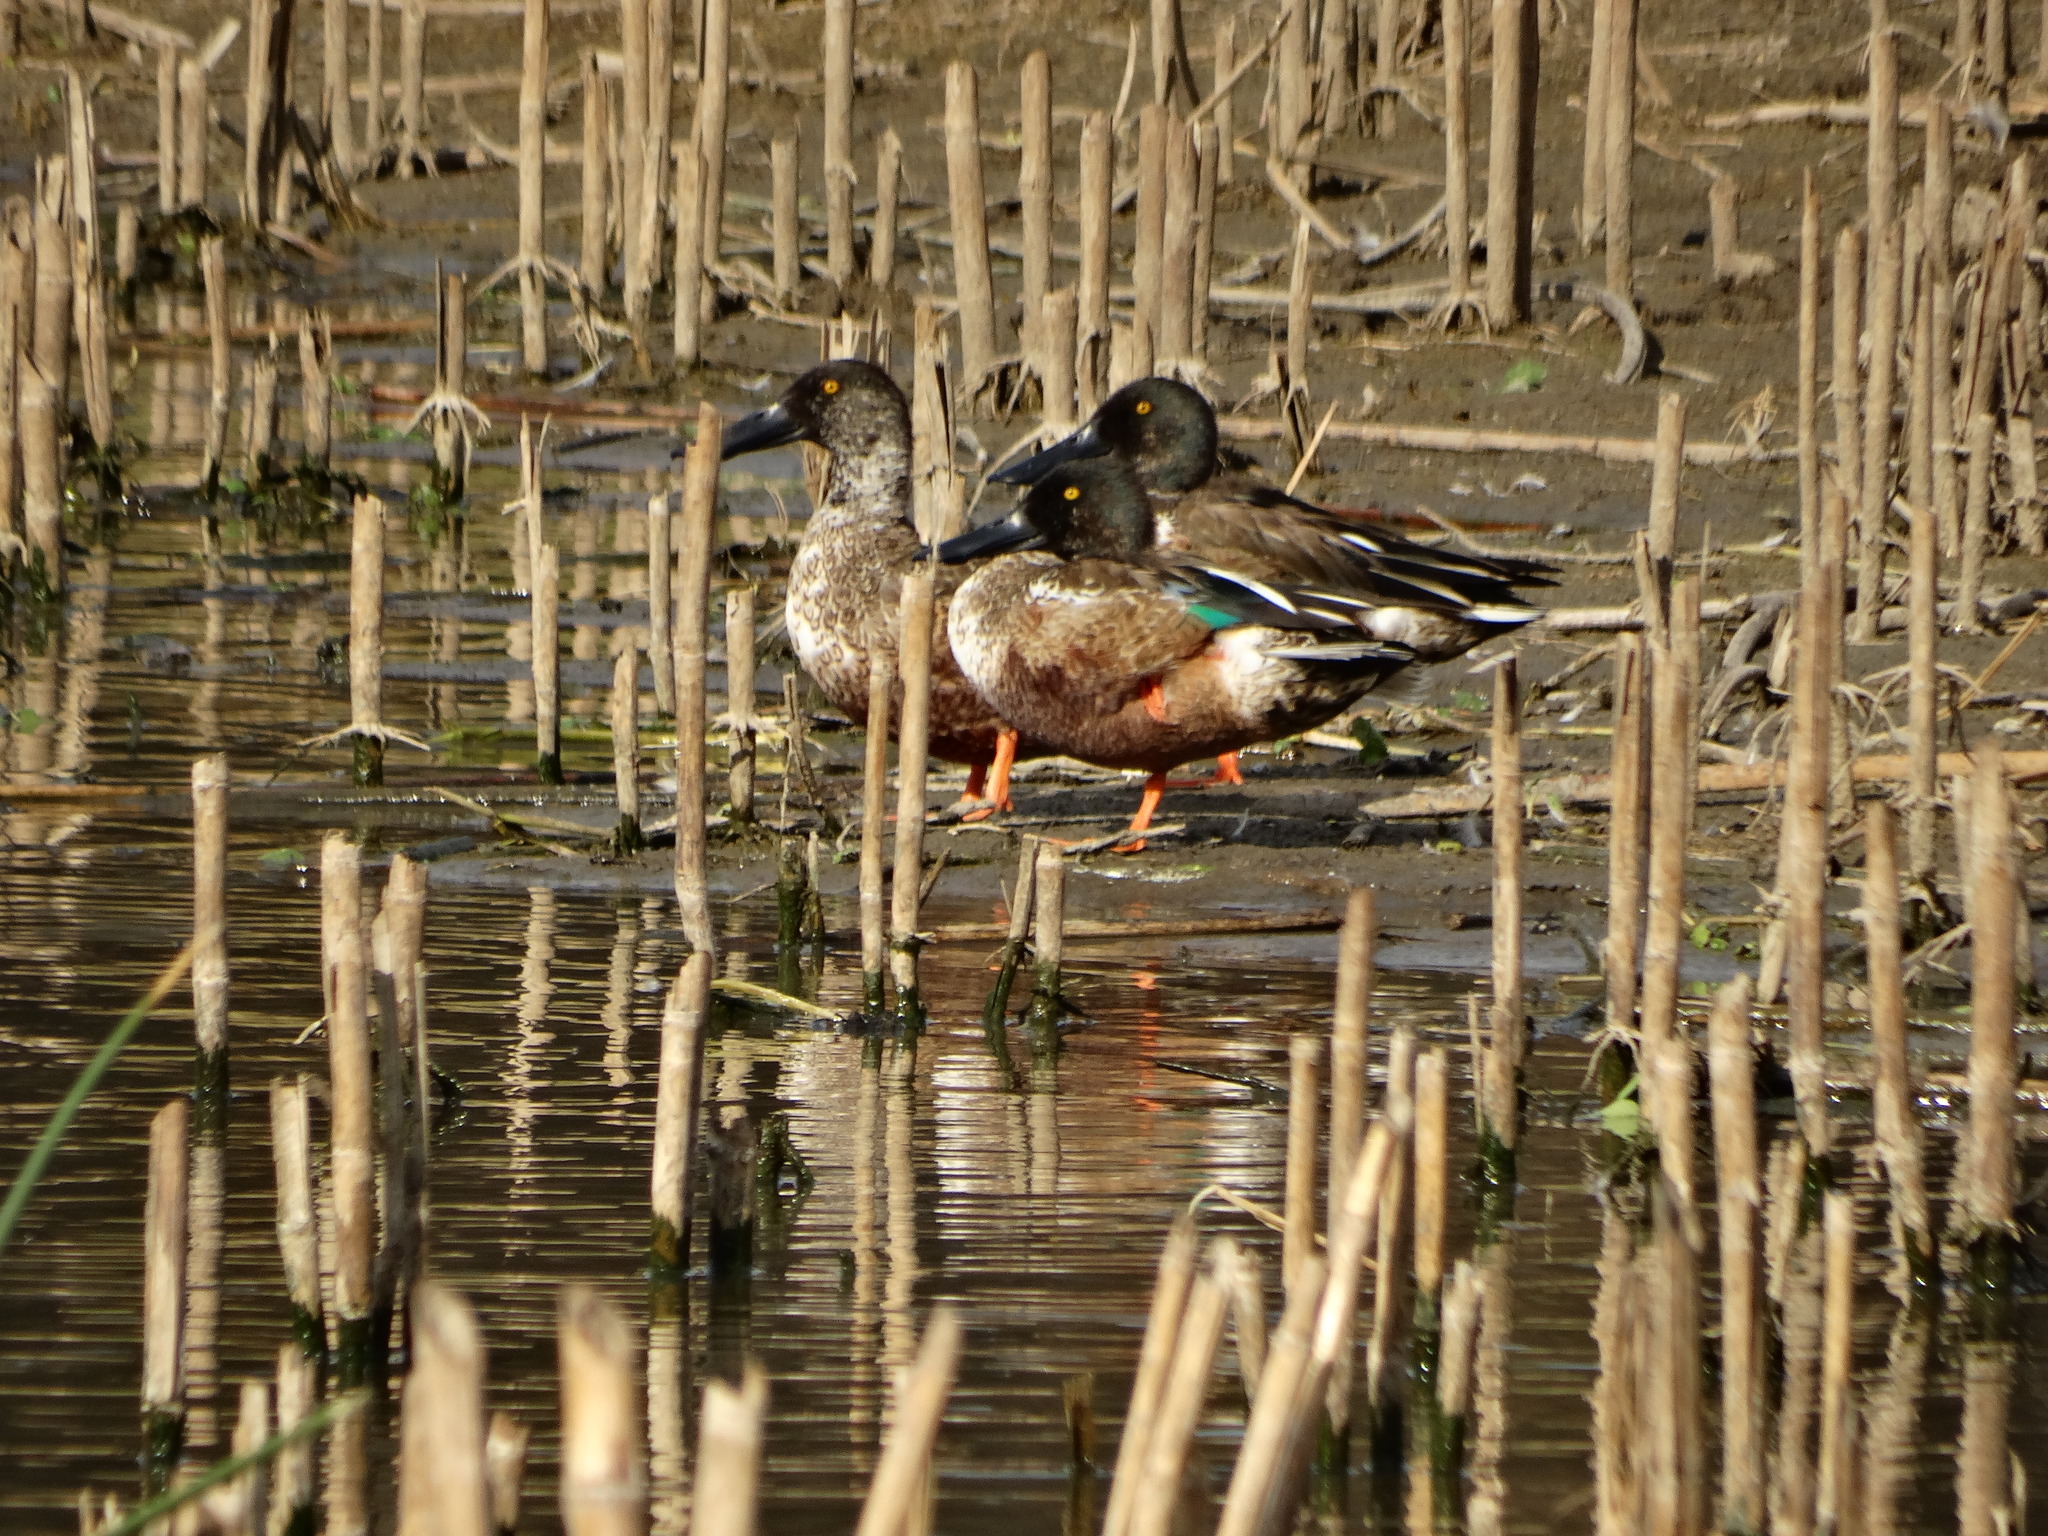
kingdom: Animalia
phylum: Chordata
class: Aves
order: Anseriformes
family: Anatidae
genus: Spatula
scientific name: Spatula clypeata
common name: Northern shoveler
